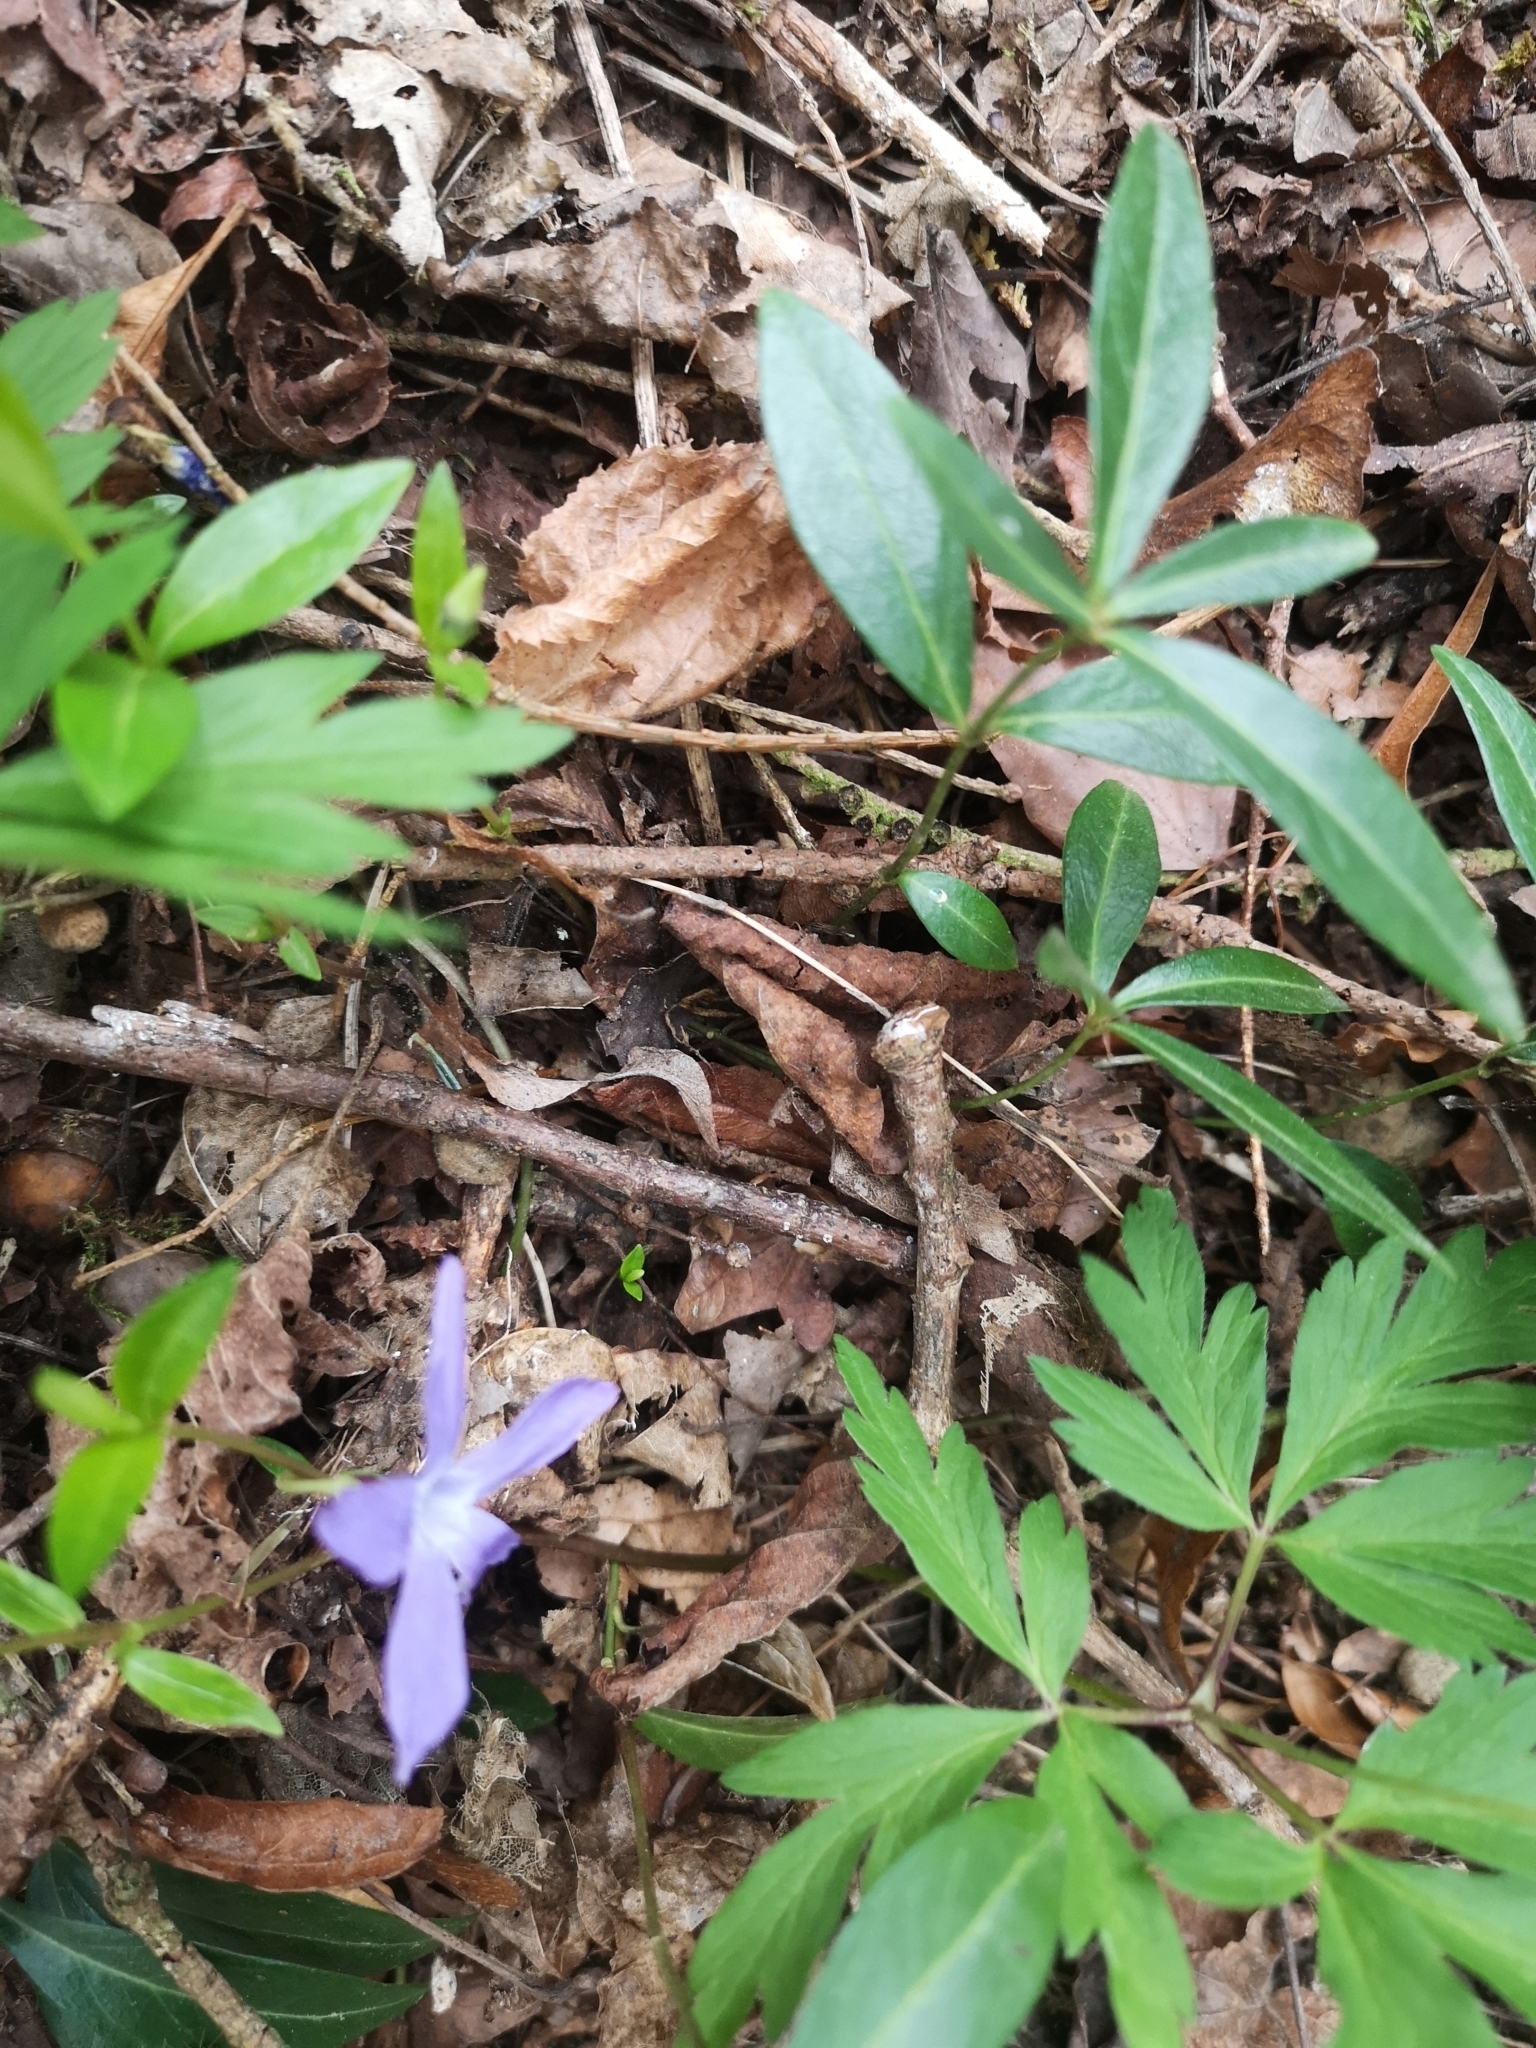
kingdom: Plantae
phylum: Tracheophyta
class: Magnoliopsida
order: Gentianales
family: Apocynaceae
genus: Vinca
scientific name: Vinca minor
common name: Lesser periwinkle
